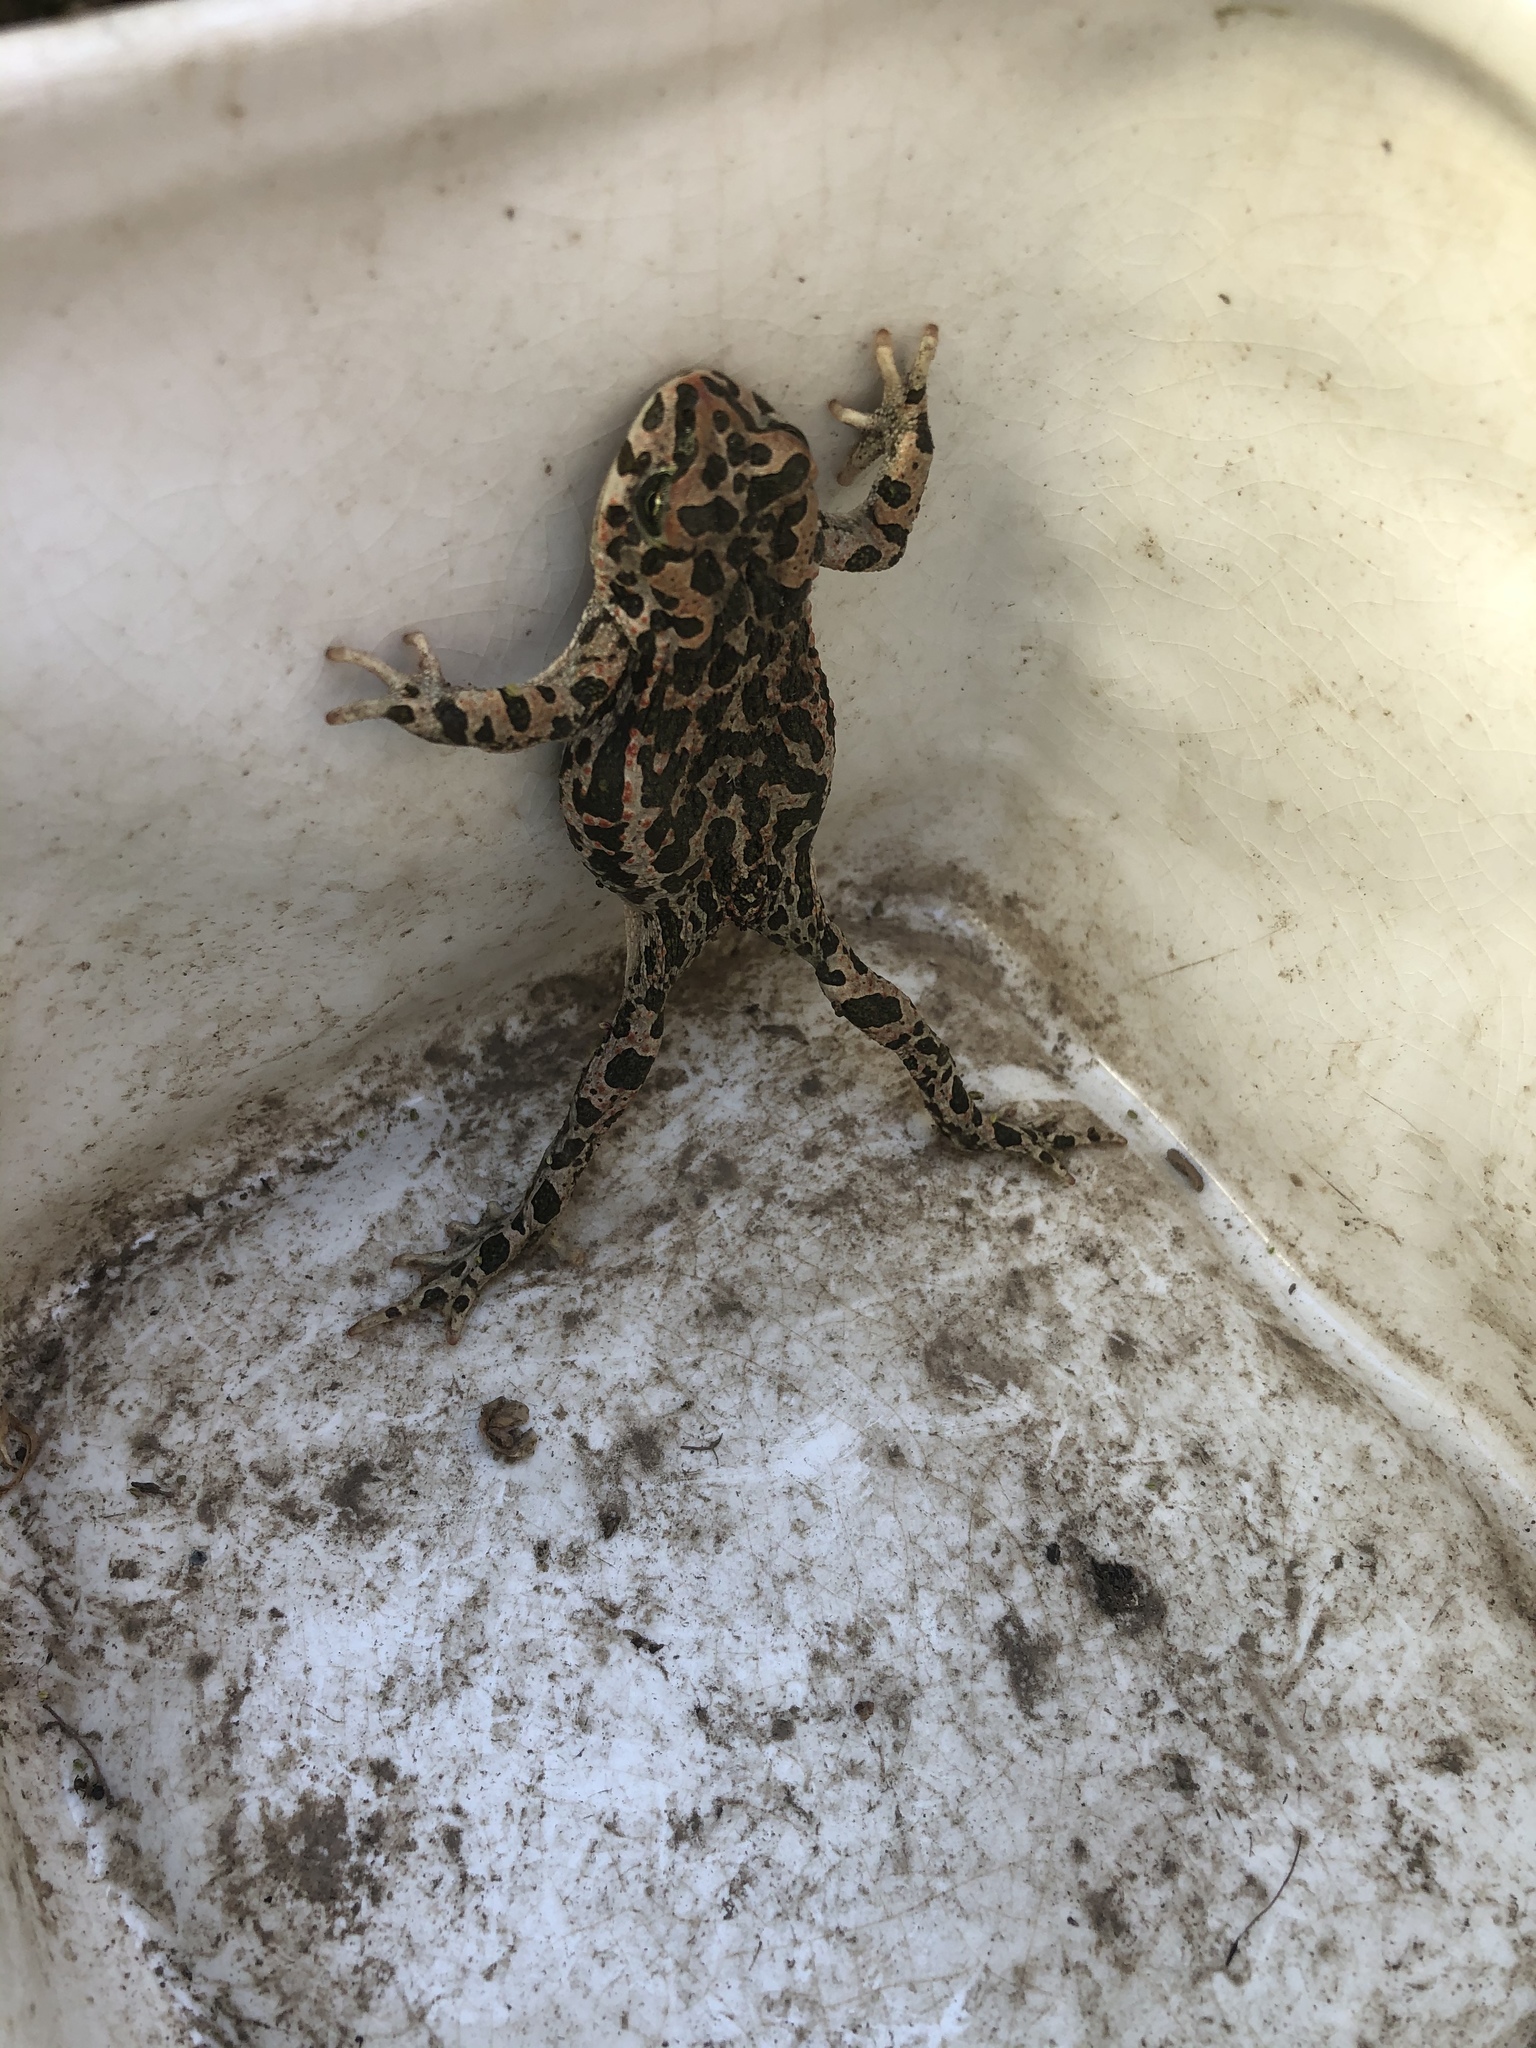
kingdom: Animalia
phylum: Chordata
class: Amphibia
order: Anura
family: Bufonidae
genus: Bufotes
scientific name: Bufotes viridis
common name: European green toad
